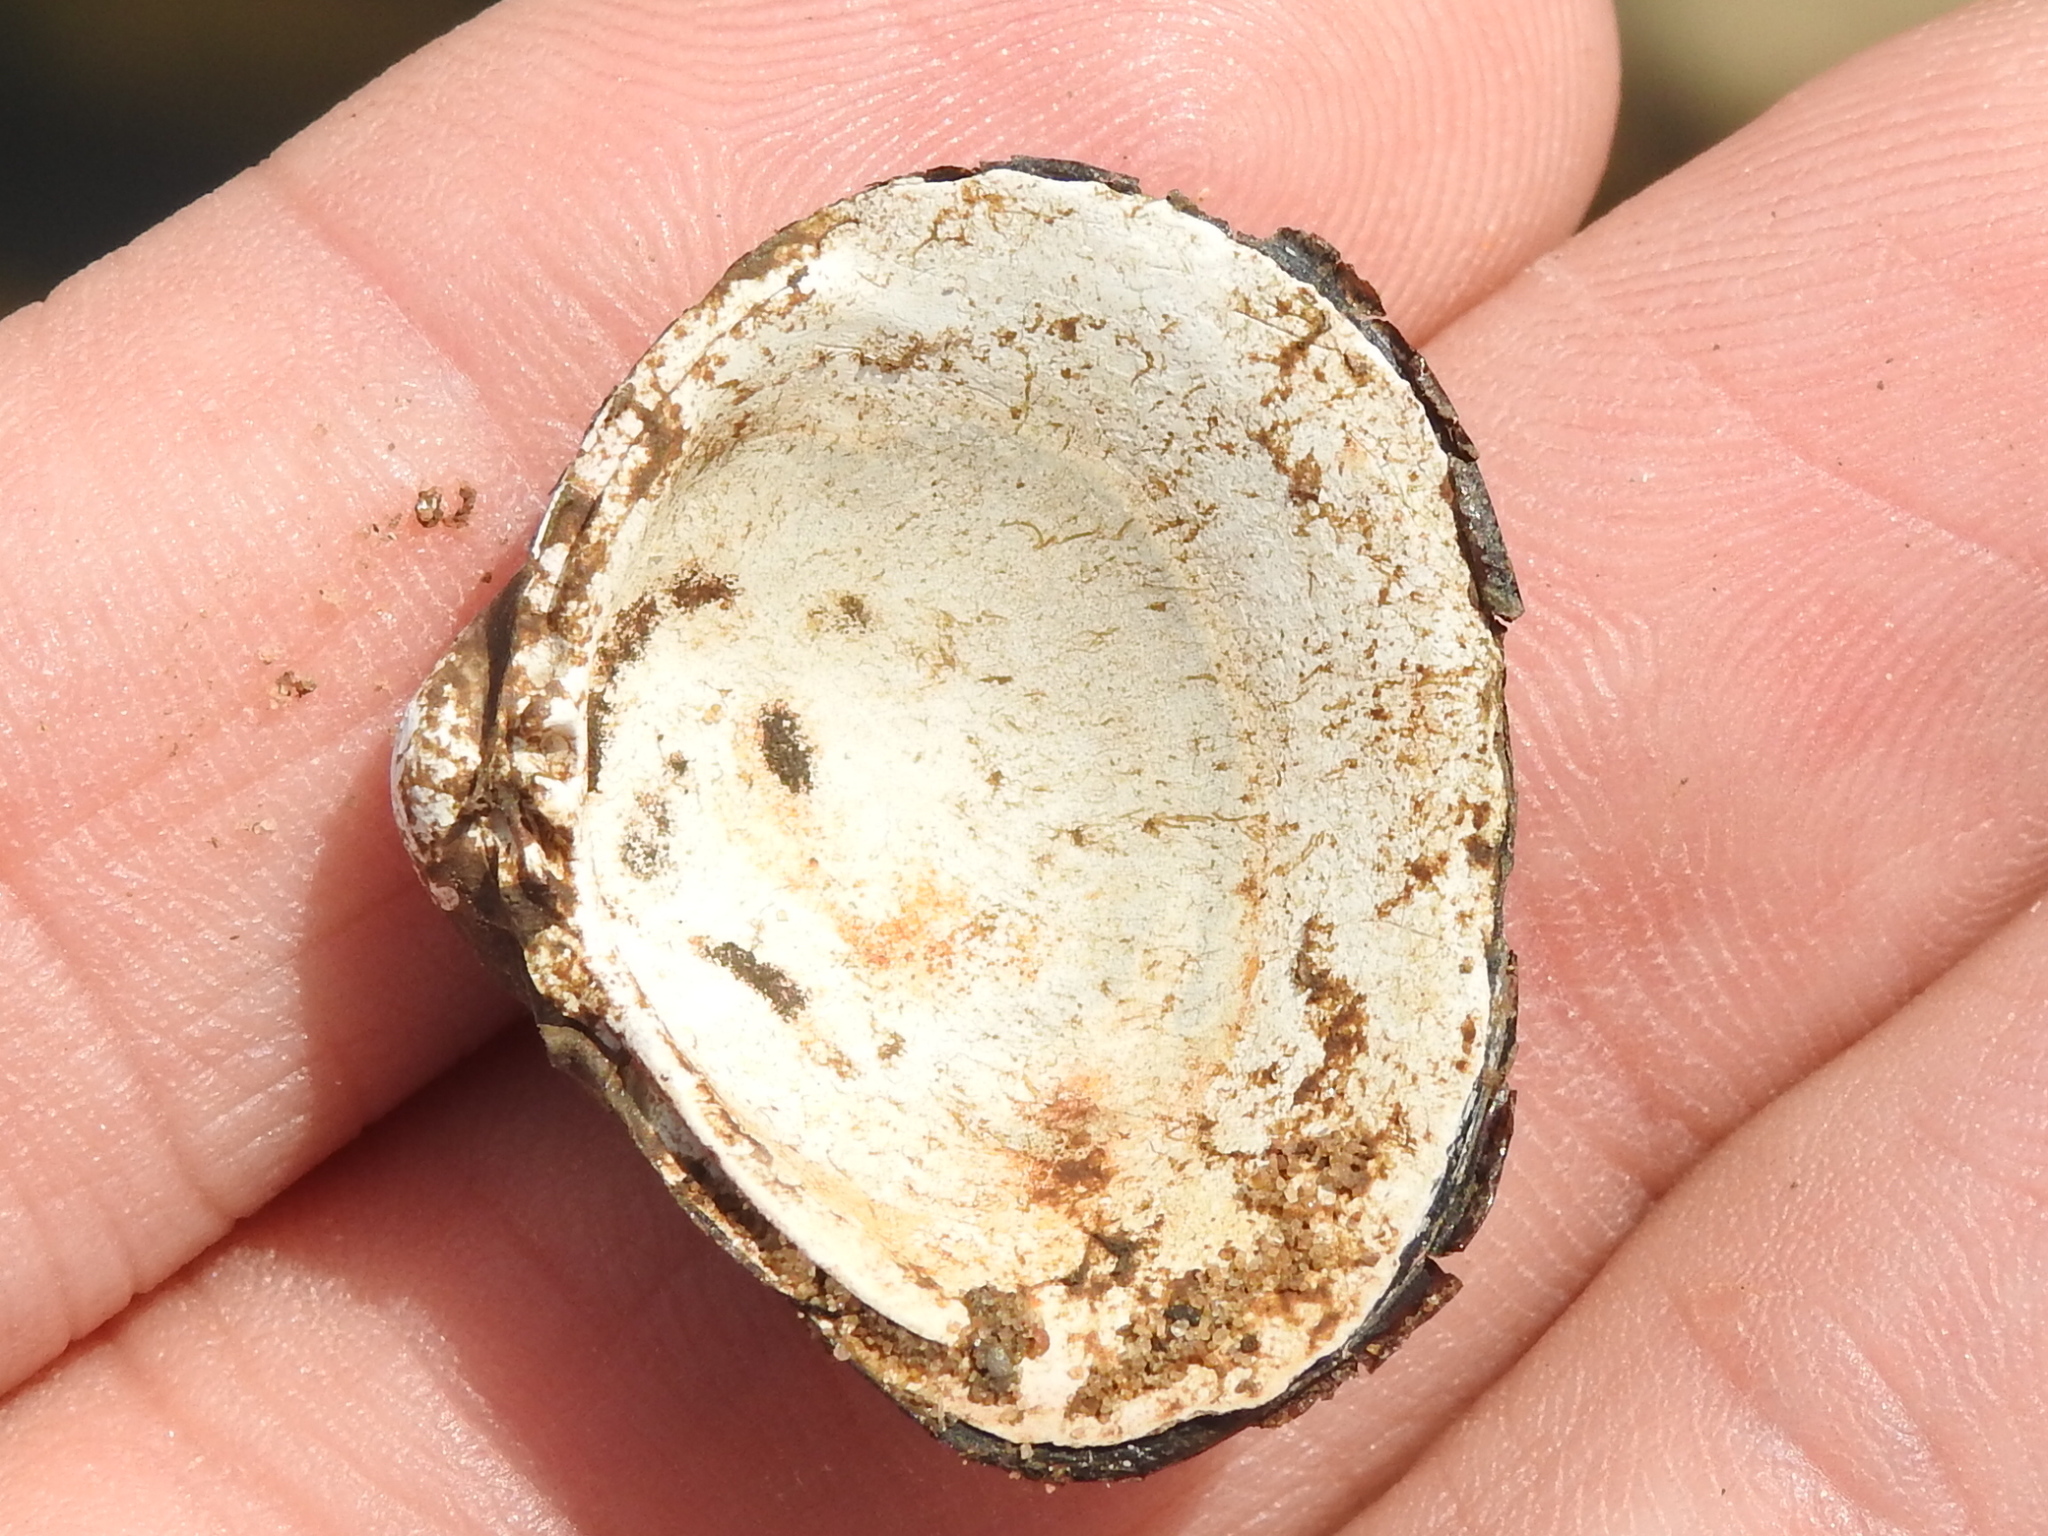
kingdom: Animalia
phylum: Mollusca
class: Bivalvia
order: Venerida
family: Cyrenidae
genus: Corbicula
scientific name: Corbicula fluminea
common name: Asian clam
